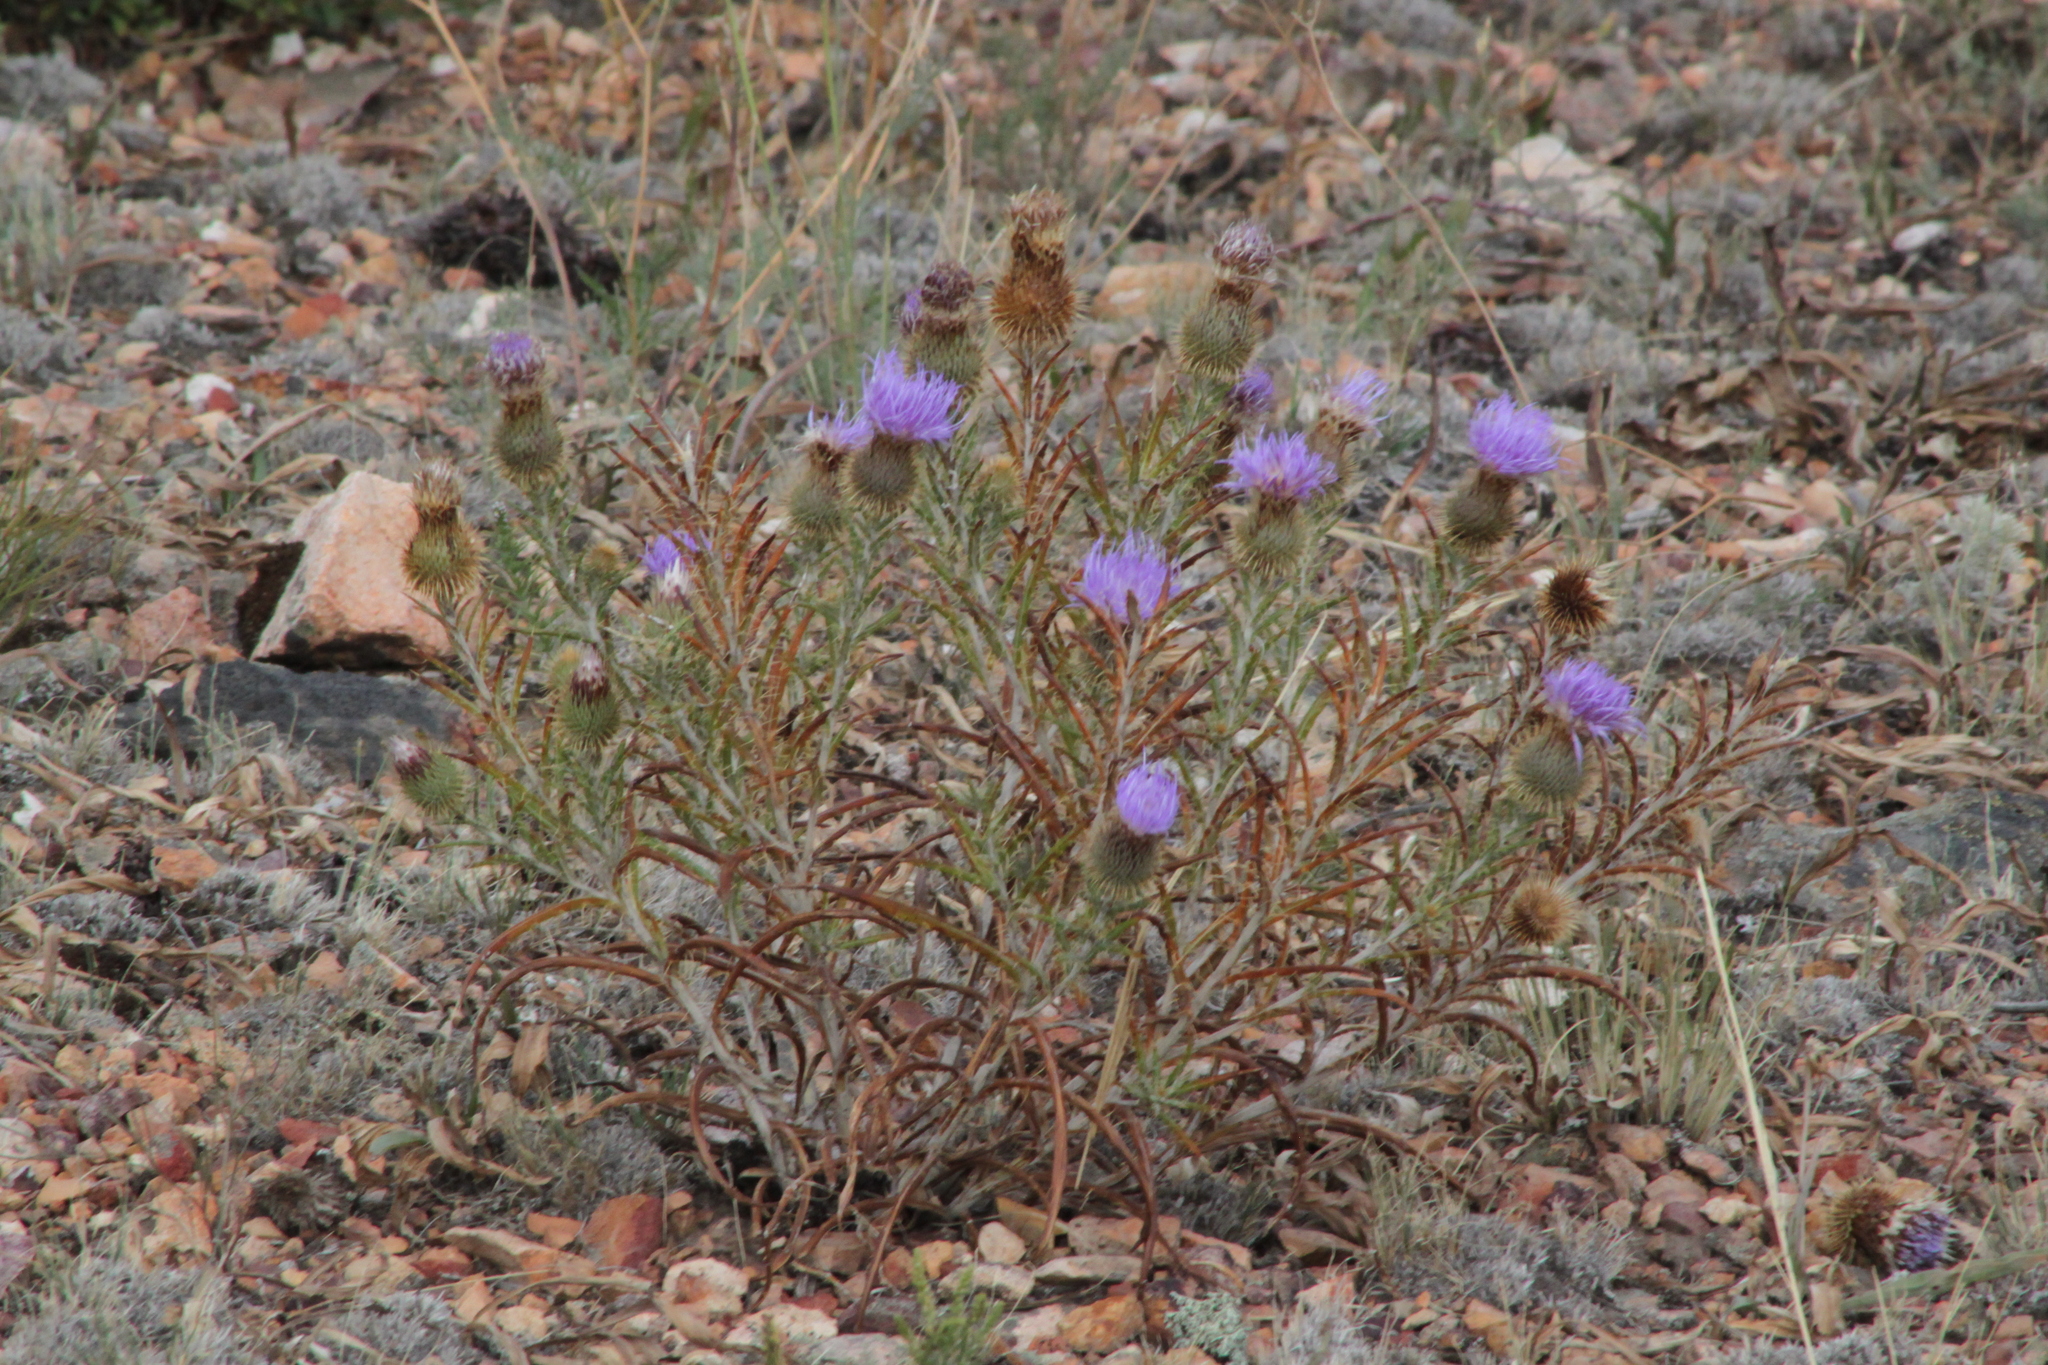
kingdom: Plantae
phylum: Tracheophyta
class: Magnoliopsida
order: Asterales
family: Asteraceae
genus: Ancathia
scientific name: Ancathia igniaria
